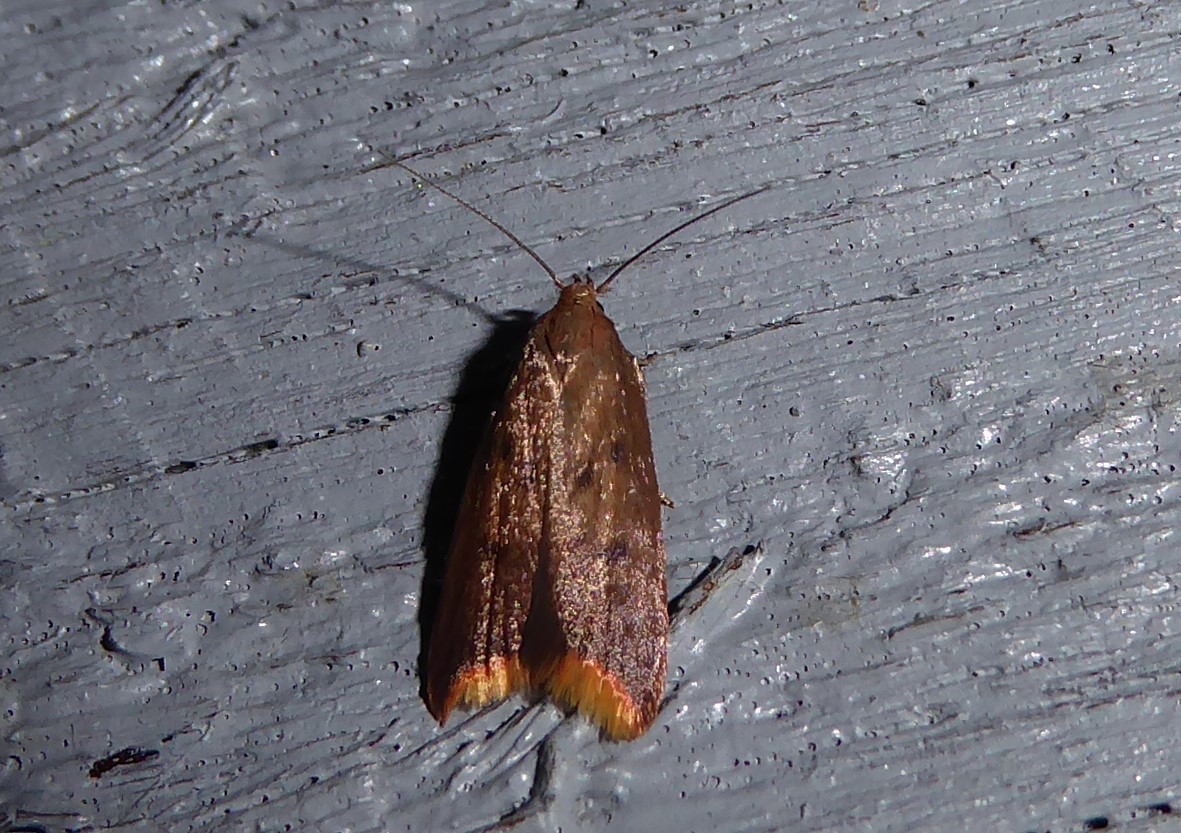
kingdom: Animalia
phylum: Arthropoda
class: Insecta
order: Lepidoptera
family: Oecophoridae
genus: Tachystola
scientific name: Tachystola acroxantha
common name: Ruddy streak
